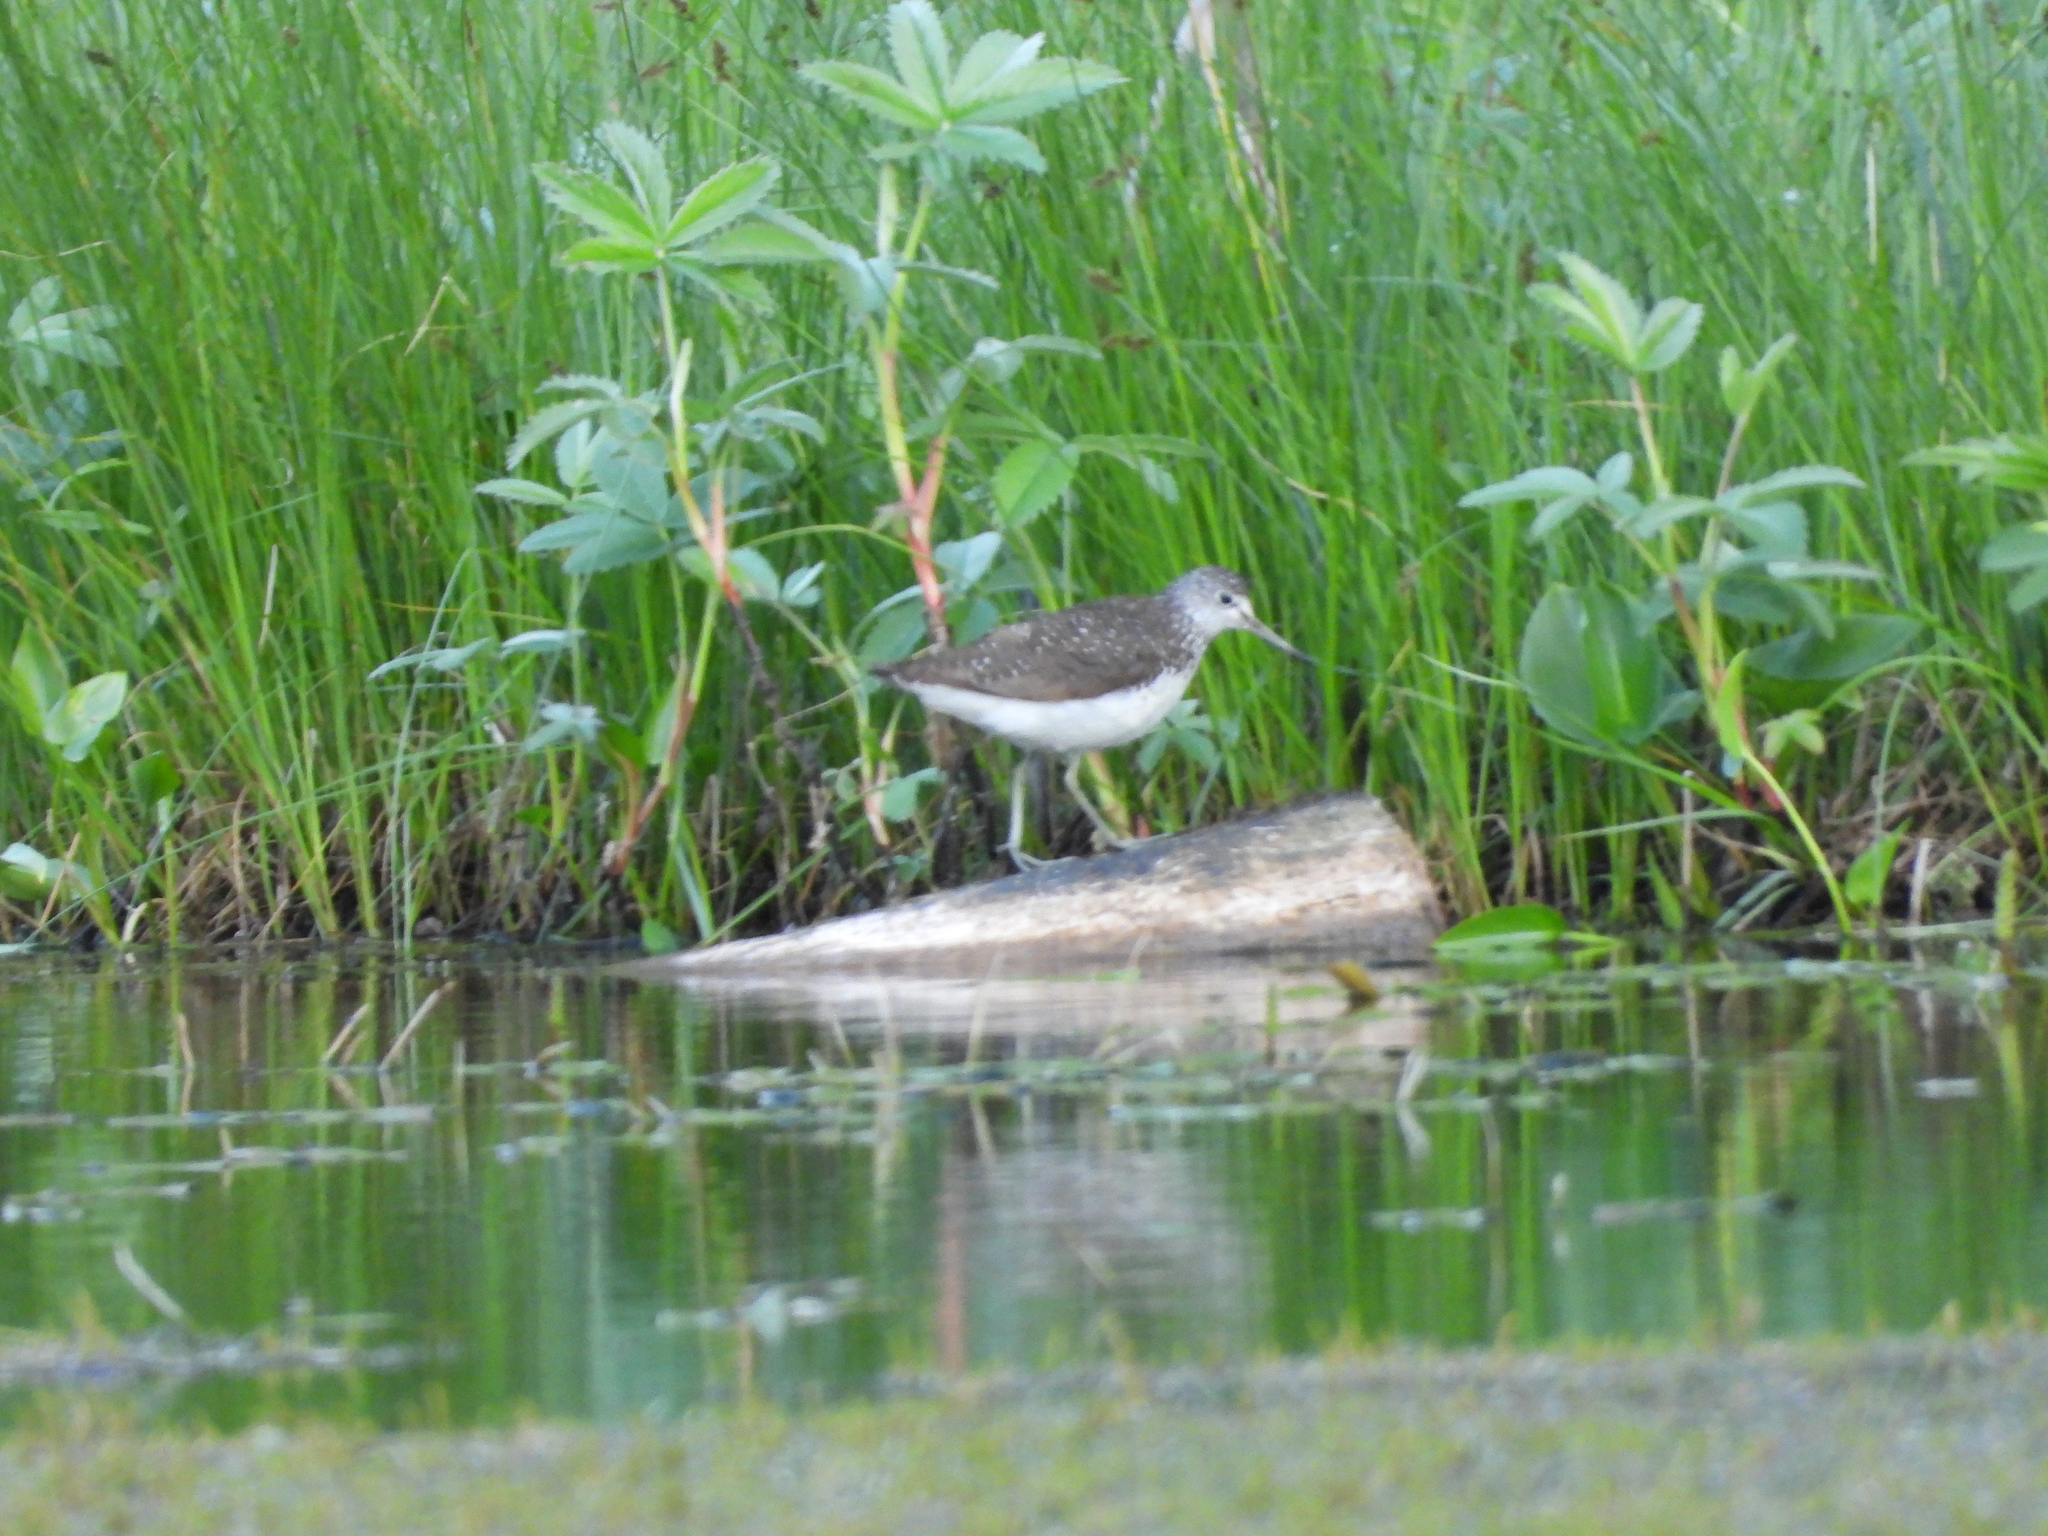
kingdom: Animalia
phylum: Chordata
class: Aves
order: Charadriiformes
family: Scolopacidae
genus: Tringa
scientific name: Tringa ochropus
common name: Green sandpiper
